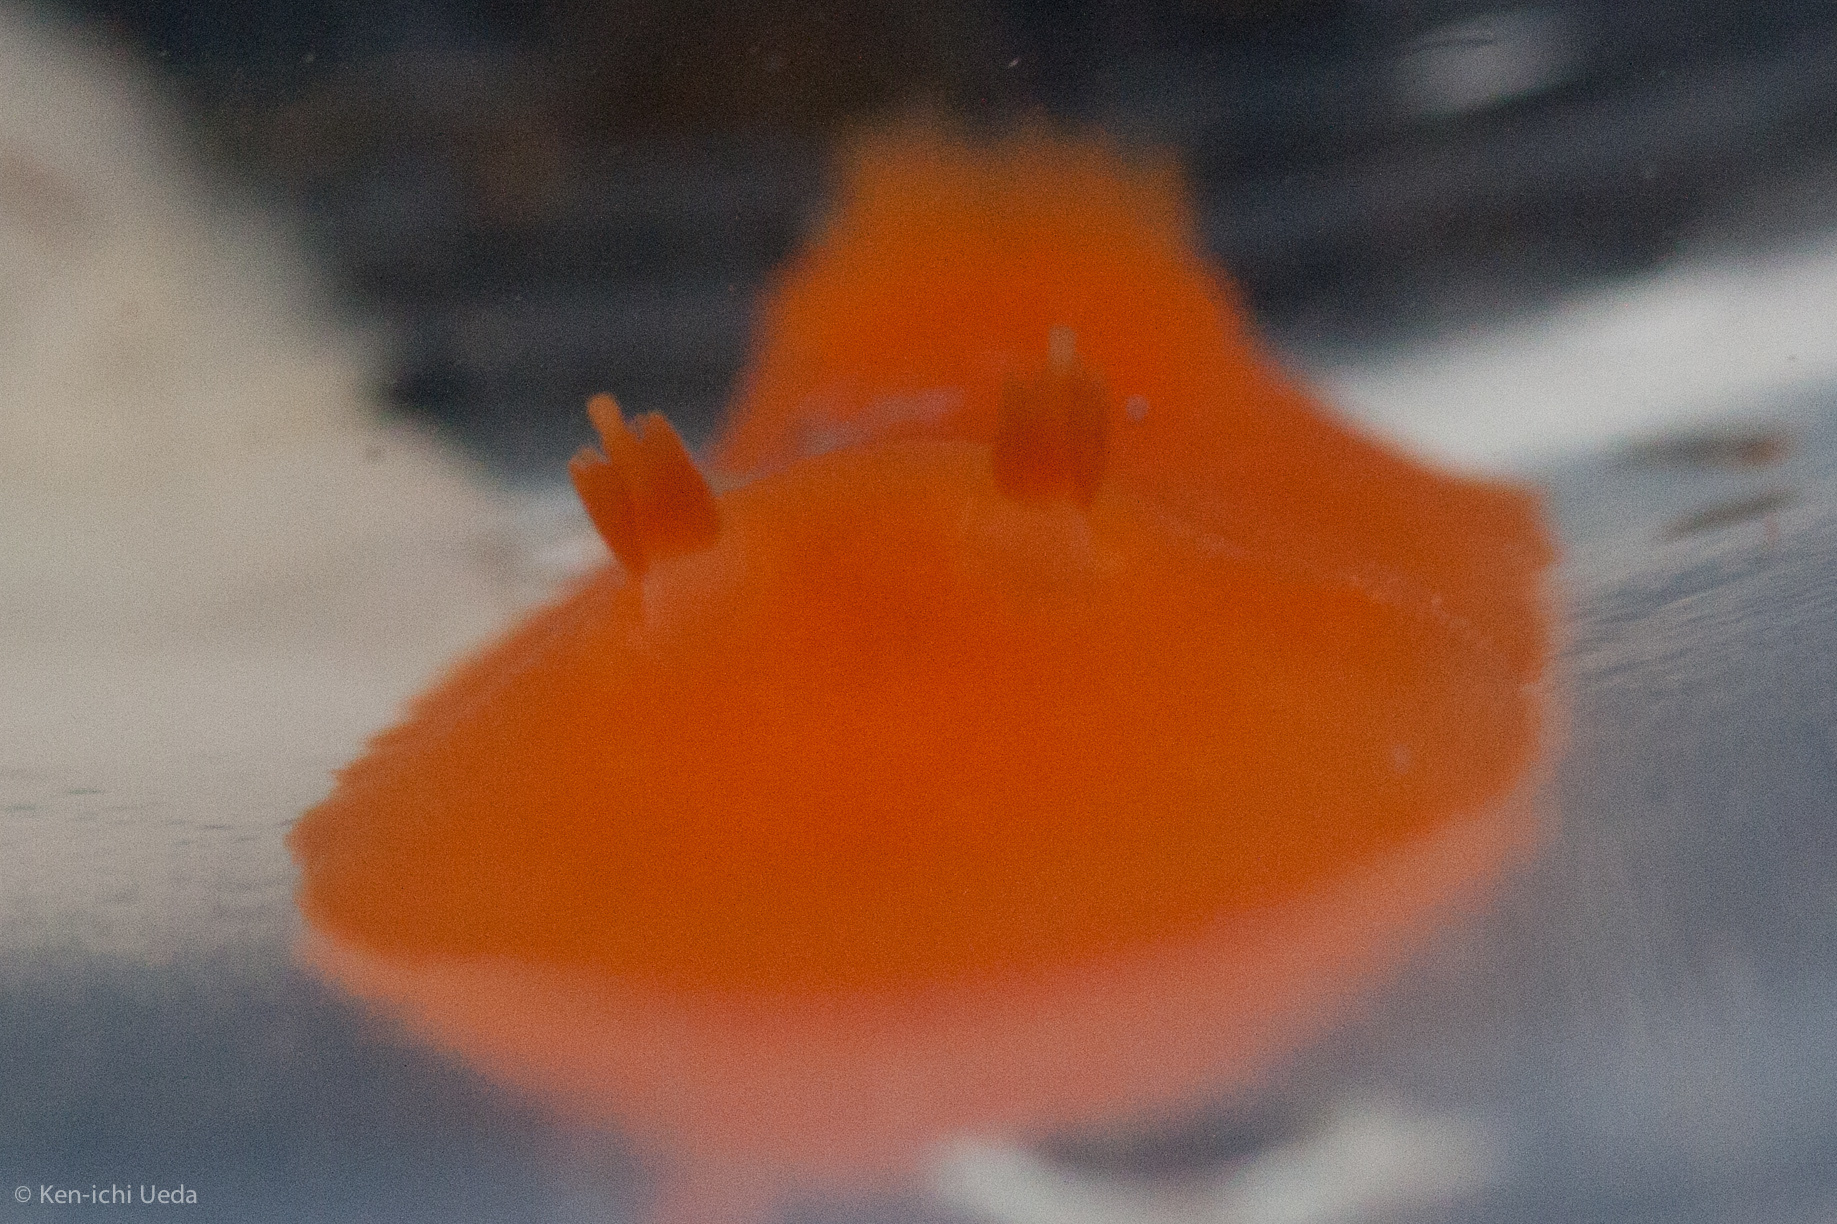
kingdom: Animalia
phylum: Mollusca
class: Gastropoda
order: Nudibranchia
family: Discodorididae
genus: Rostanga
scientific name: Rostanga pulchra
